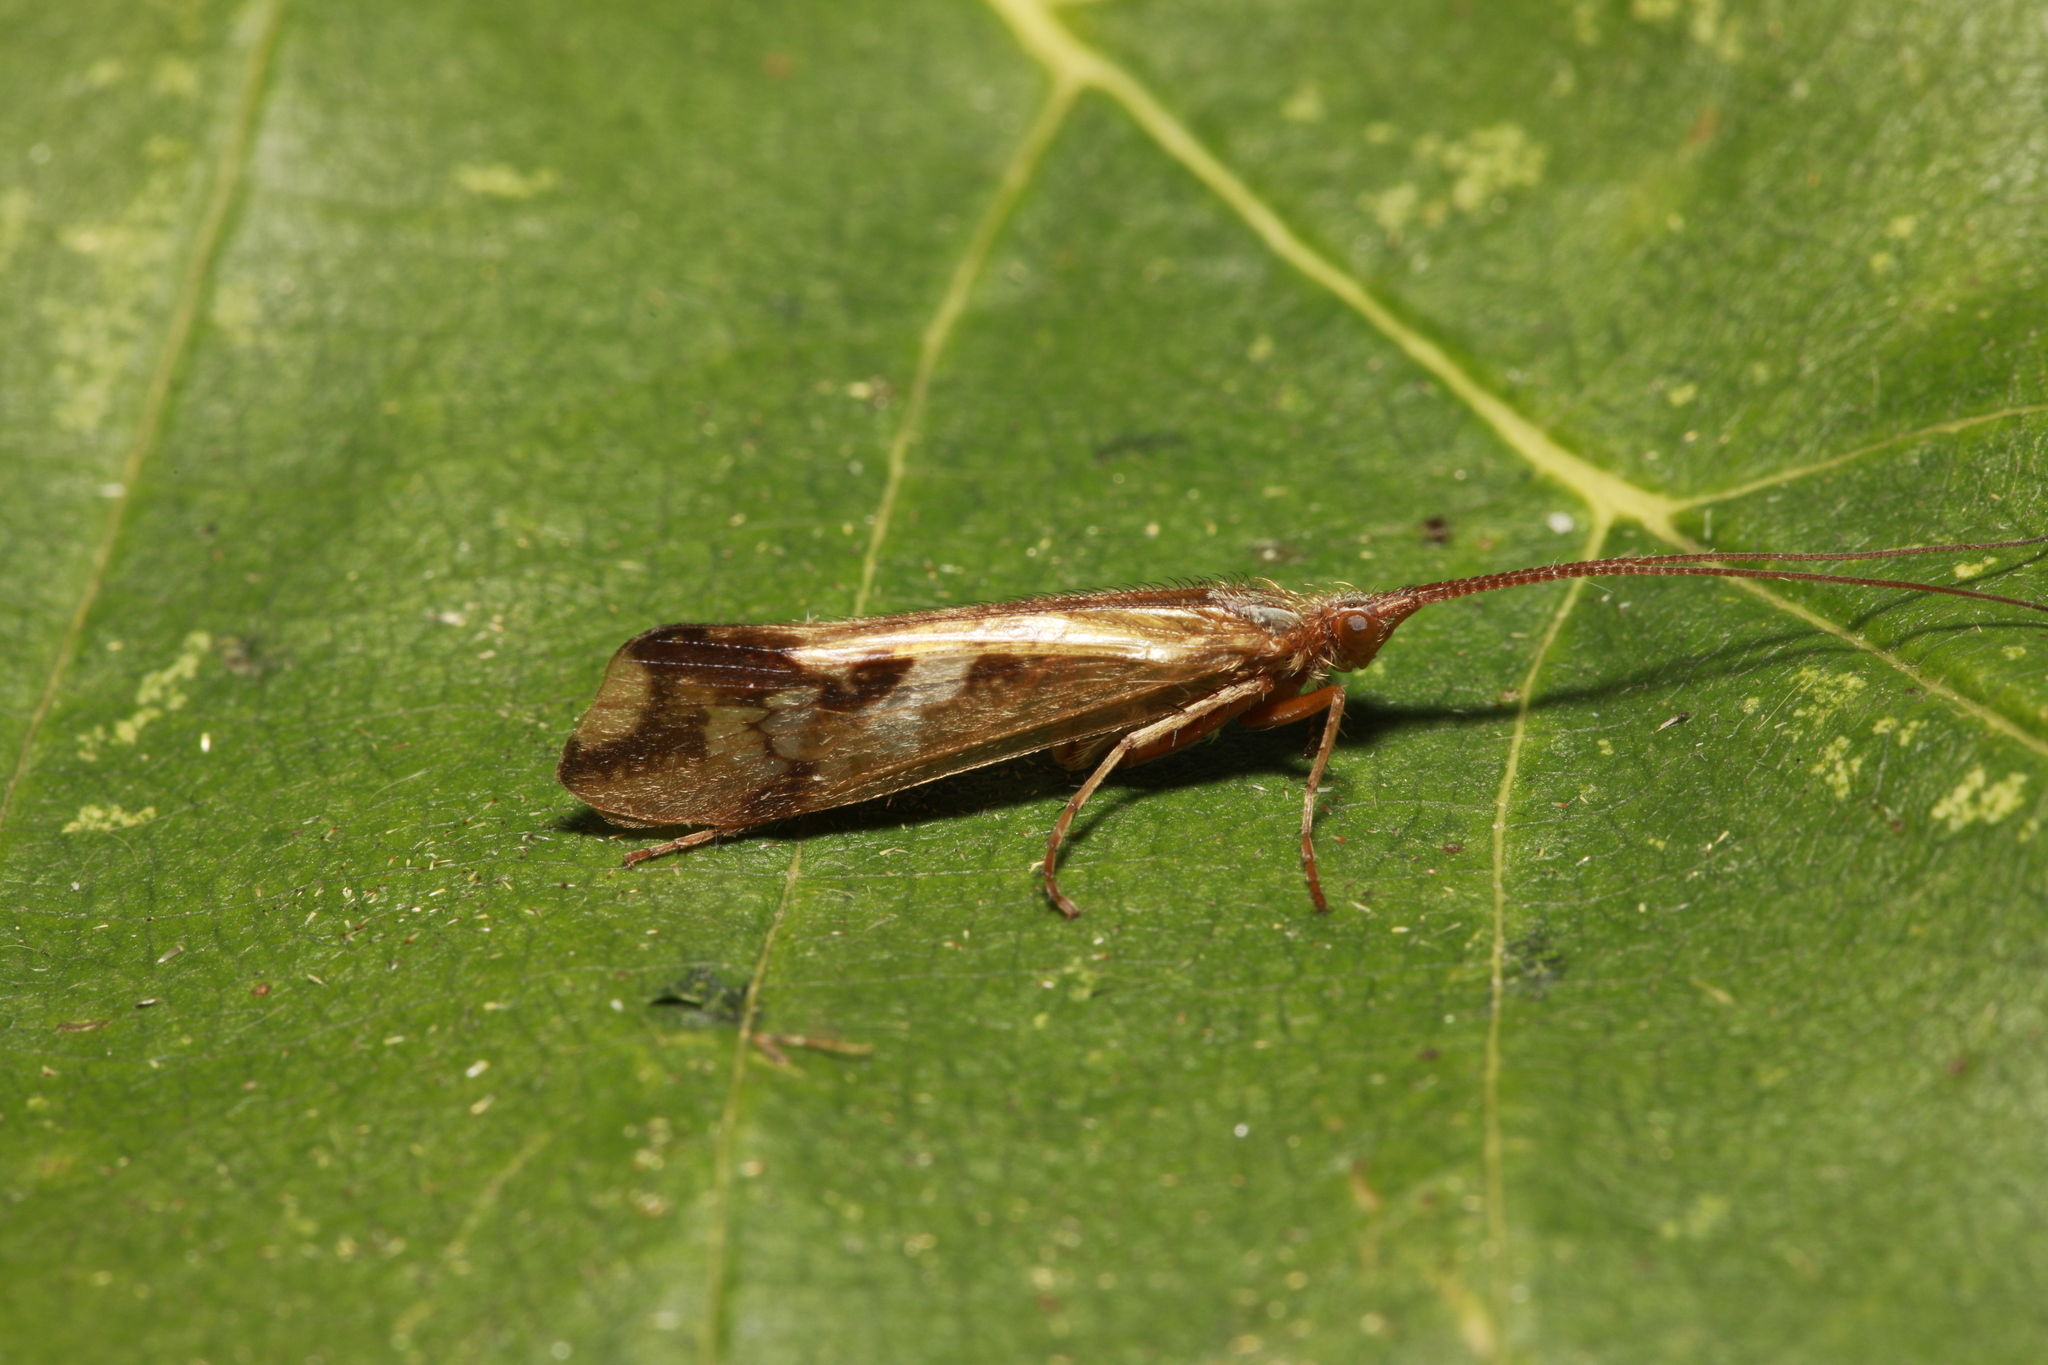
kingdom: Animalia
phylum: Arthropoda
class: Insecta
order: Trichoptera
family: Limnephilidae
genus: Limnephilus
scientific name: Limnephilus lunatus
